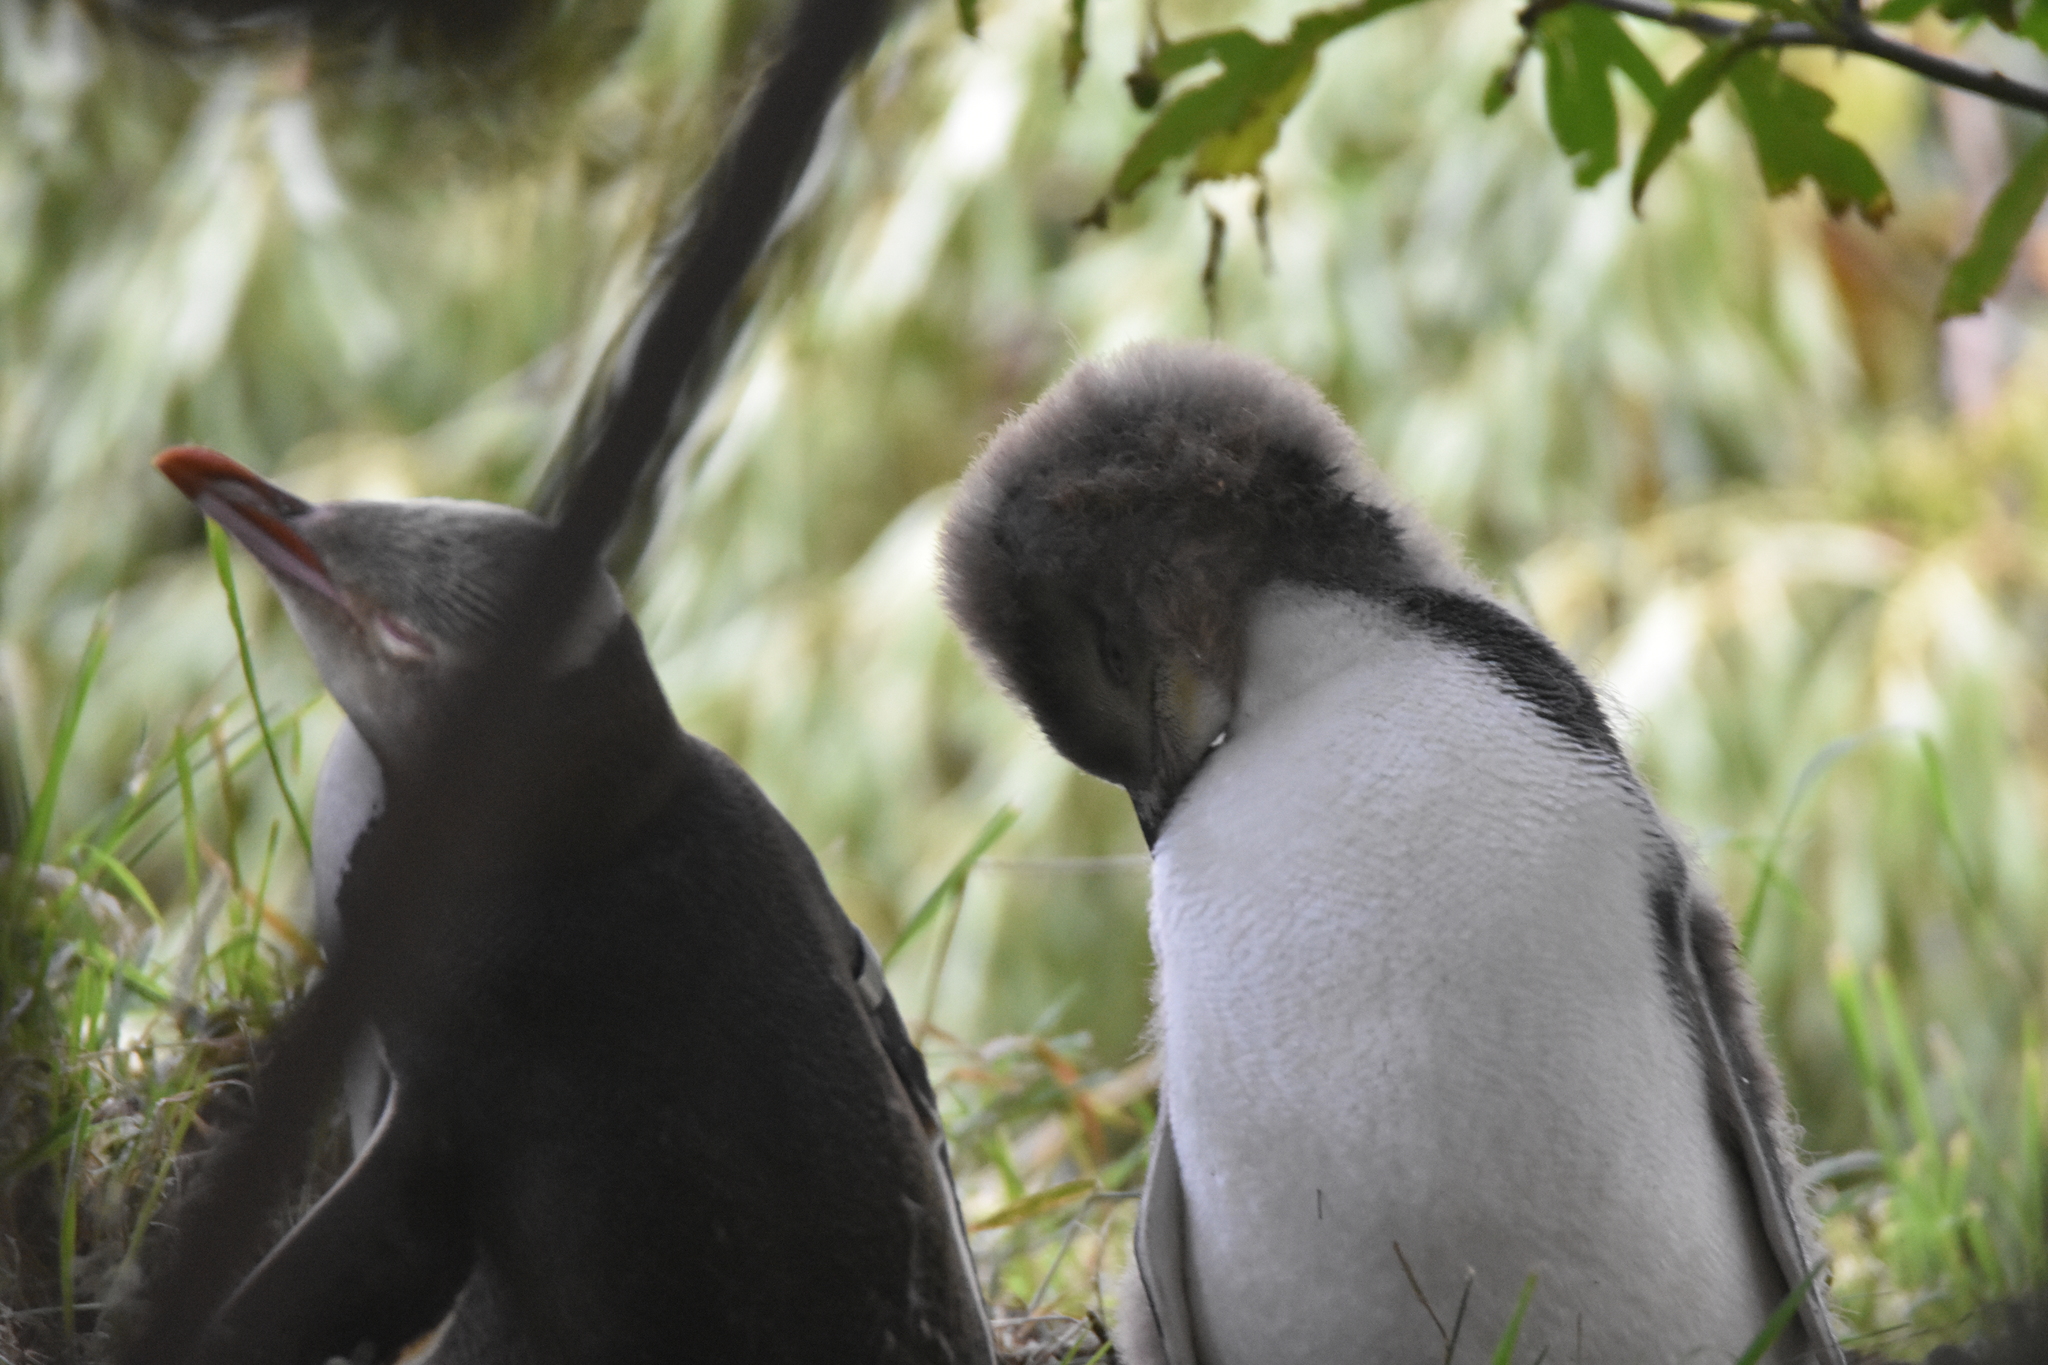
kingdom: Animalia
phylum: Chordata
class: Aves
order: Sphenisciformes
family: Spheniscidae
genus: Megadyptes
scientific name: Megadyptes antipodes
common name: Yellow-eyed penguin
